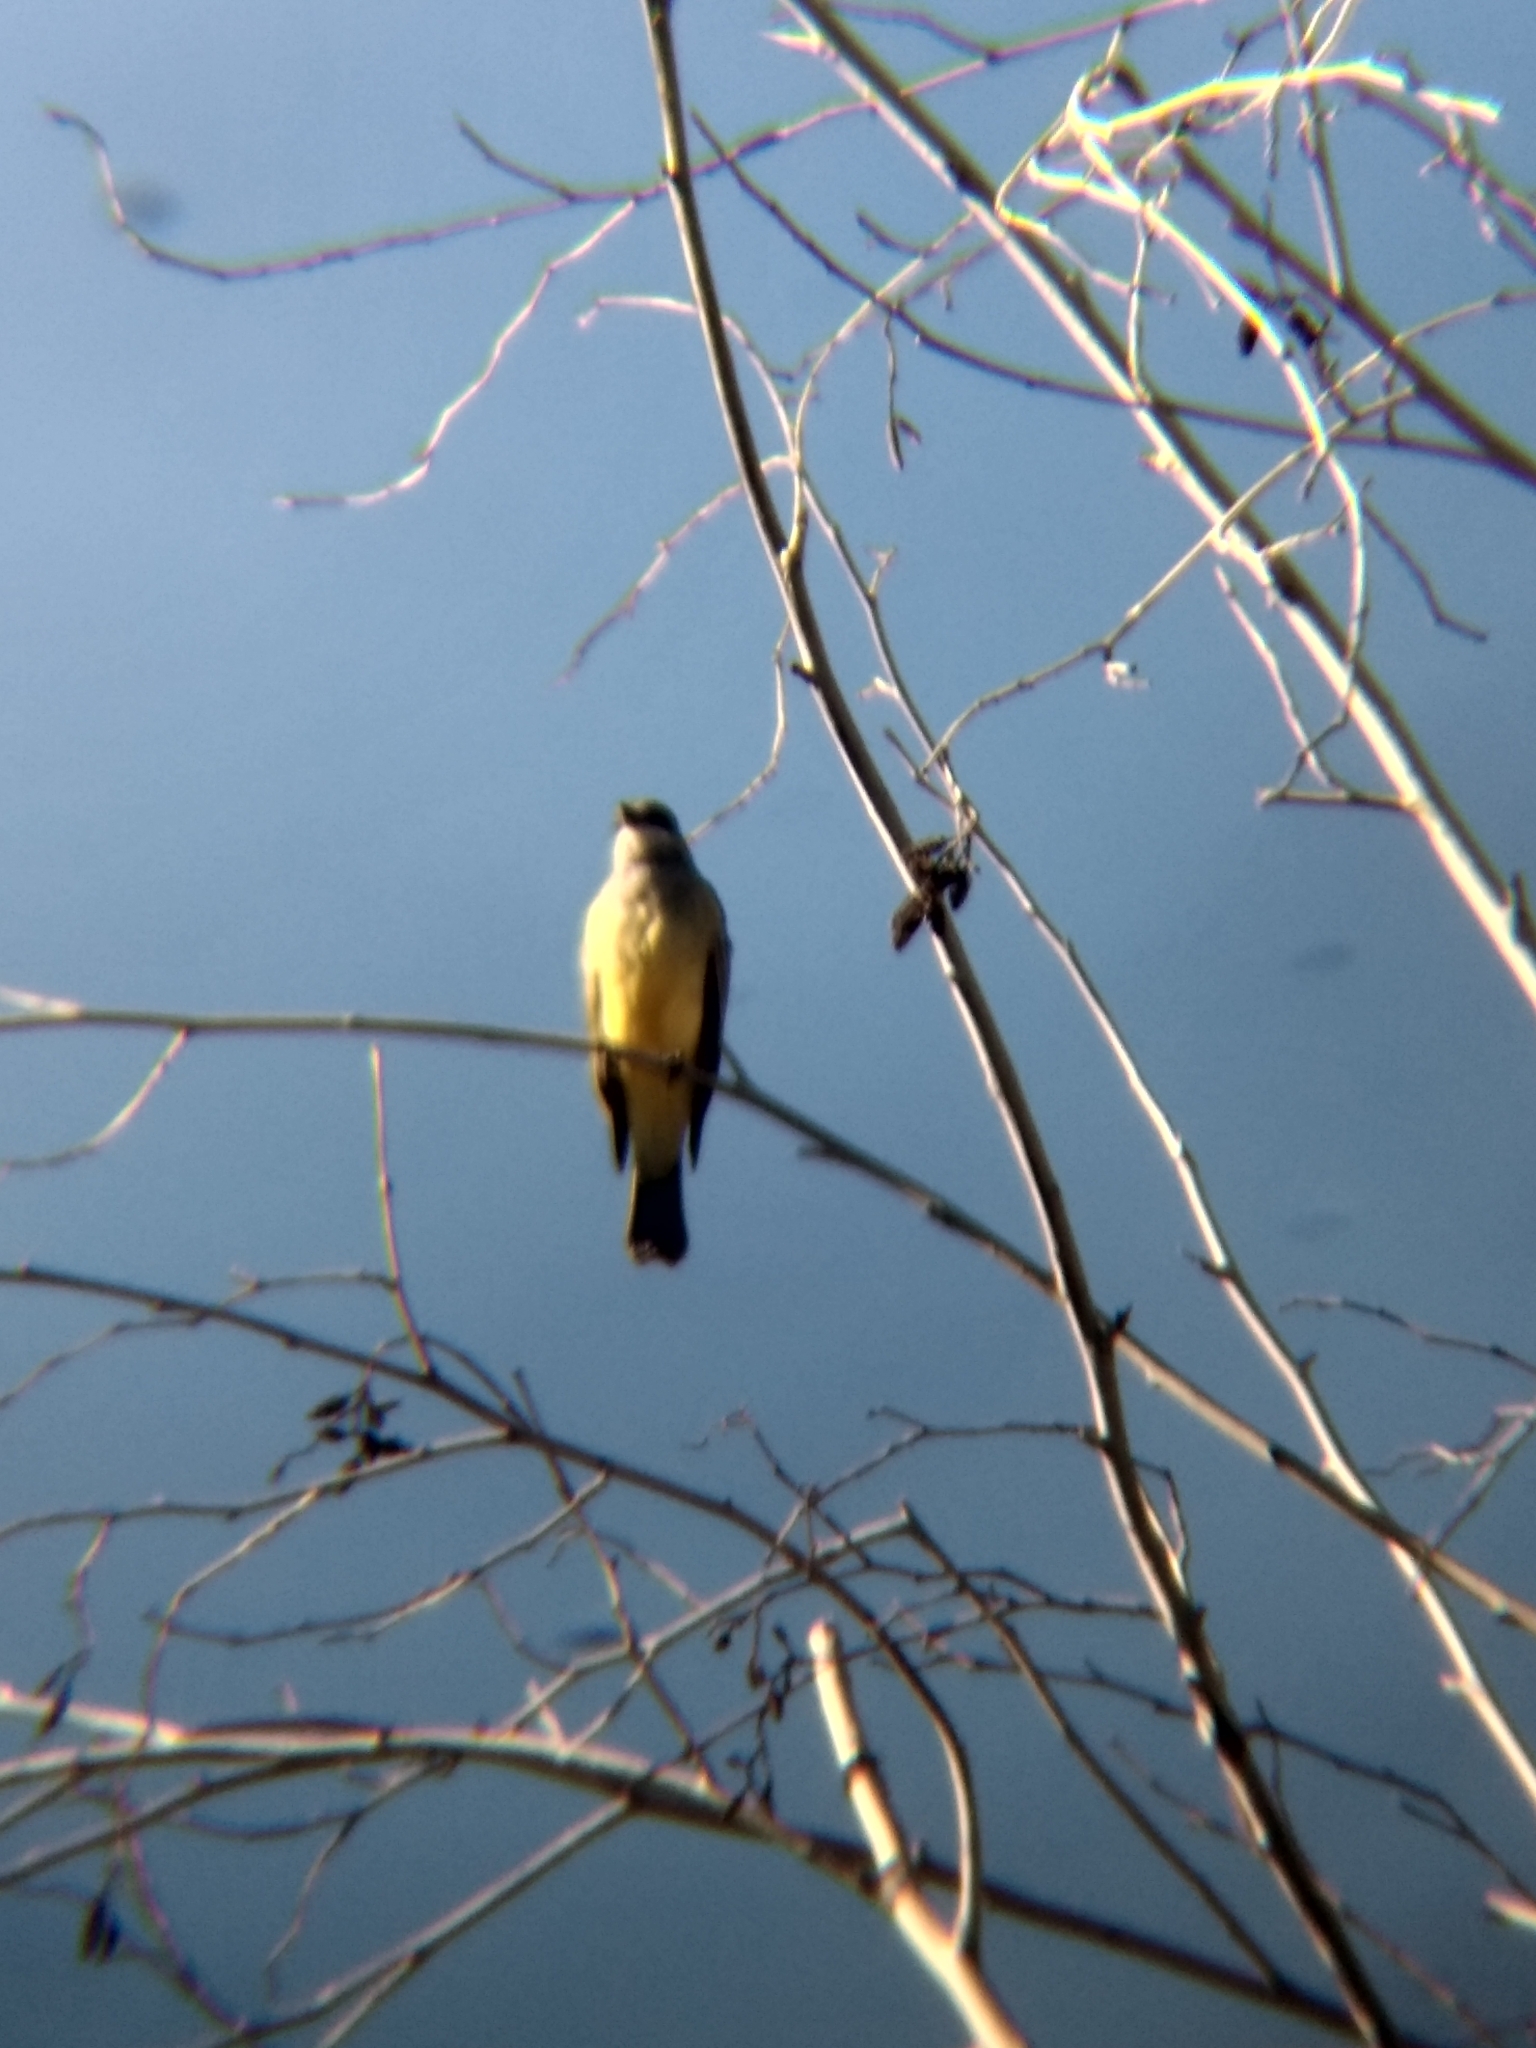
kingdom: Animalia
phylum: Chordata
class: Aves
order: Passeriformes
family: Tyrannidae
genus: Tyrannus
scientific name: Tyrannus vociferans
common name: Cassin's kingbird
